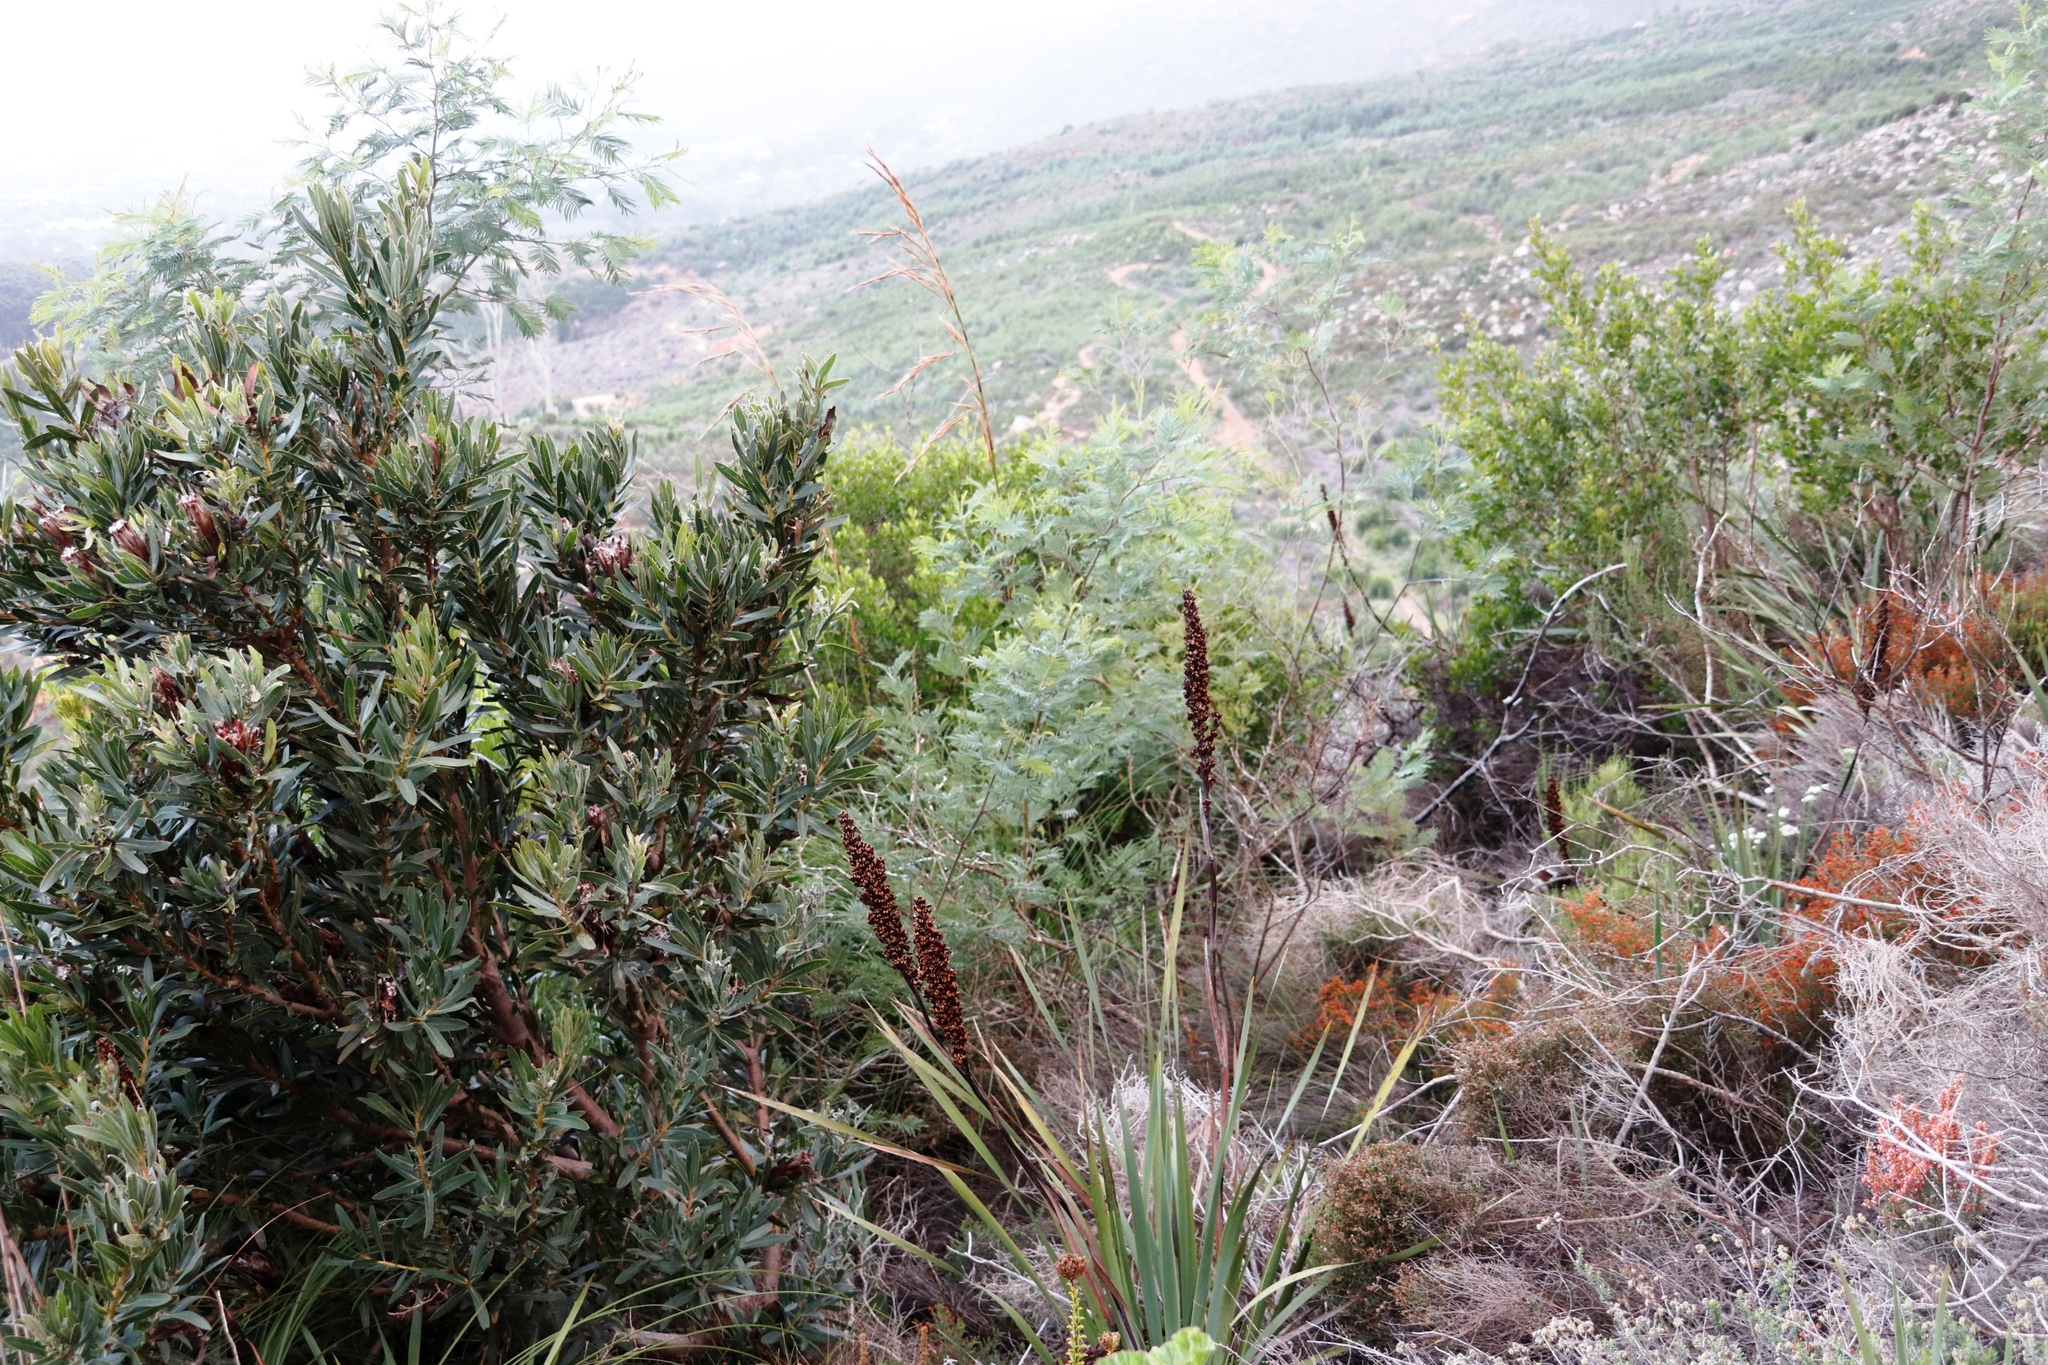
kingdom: Plantae
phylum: Tracheophyta
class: Magnoliopsida
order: Fabales
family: Fabaceae
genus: Acacia
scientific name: Acacia mearnsii
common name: Black wattle
